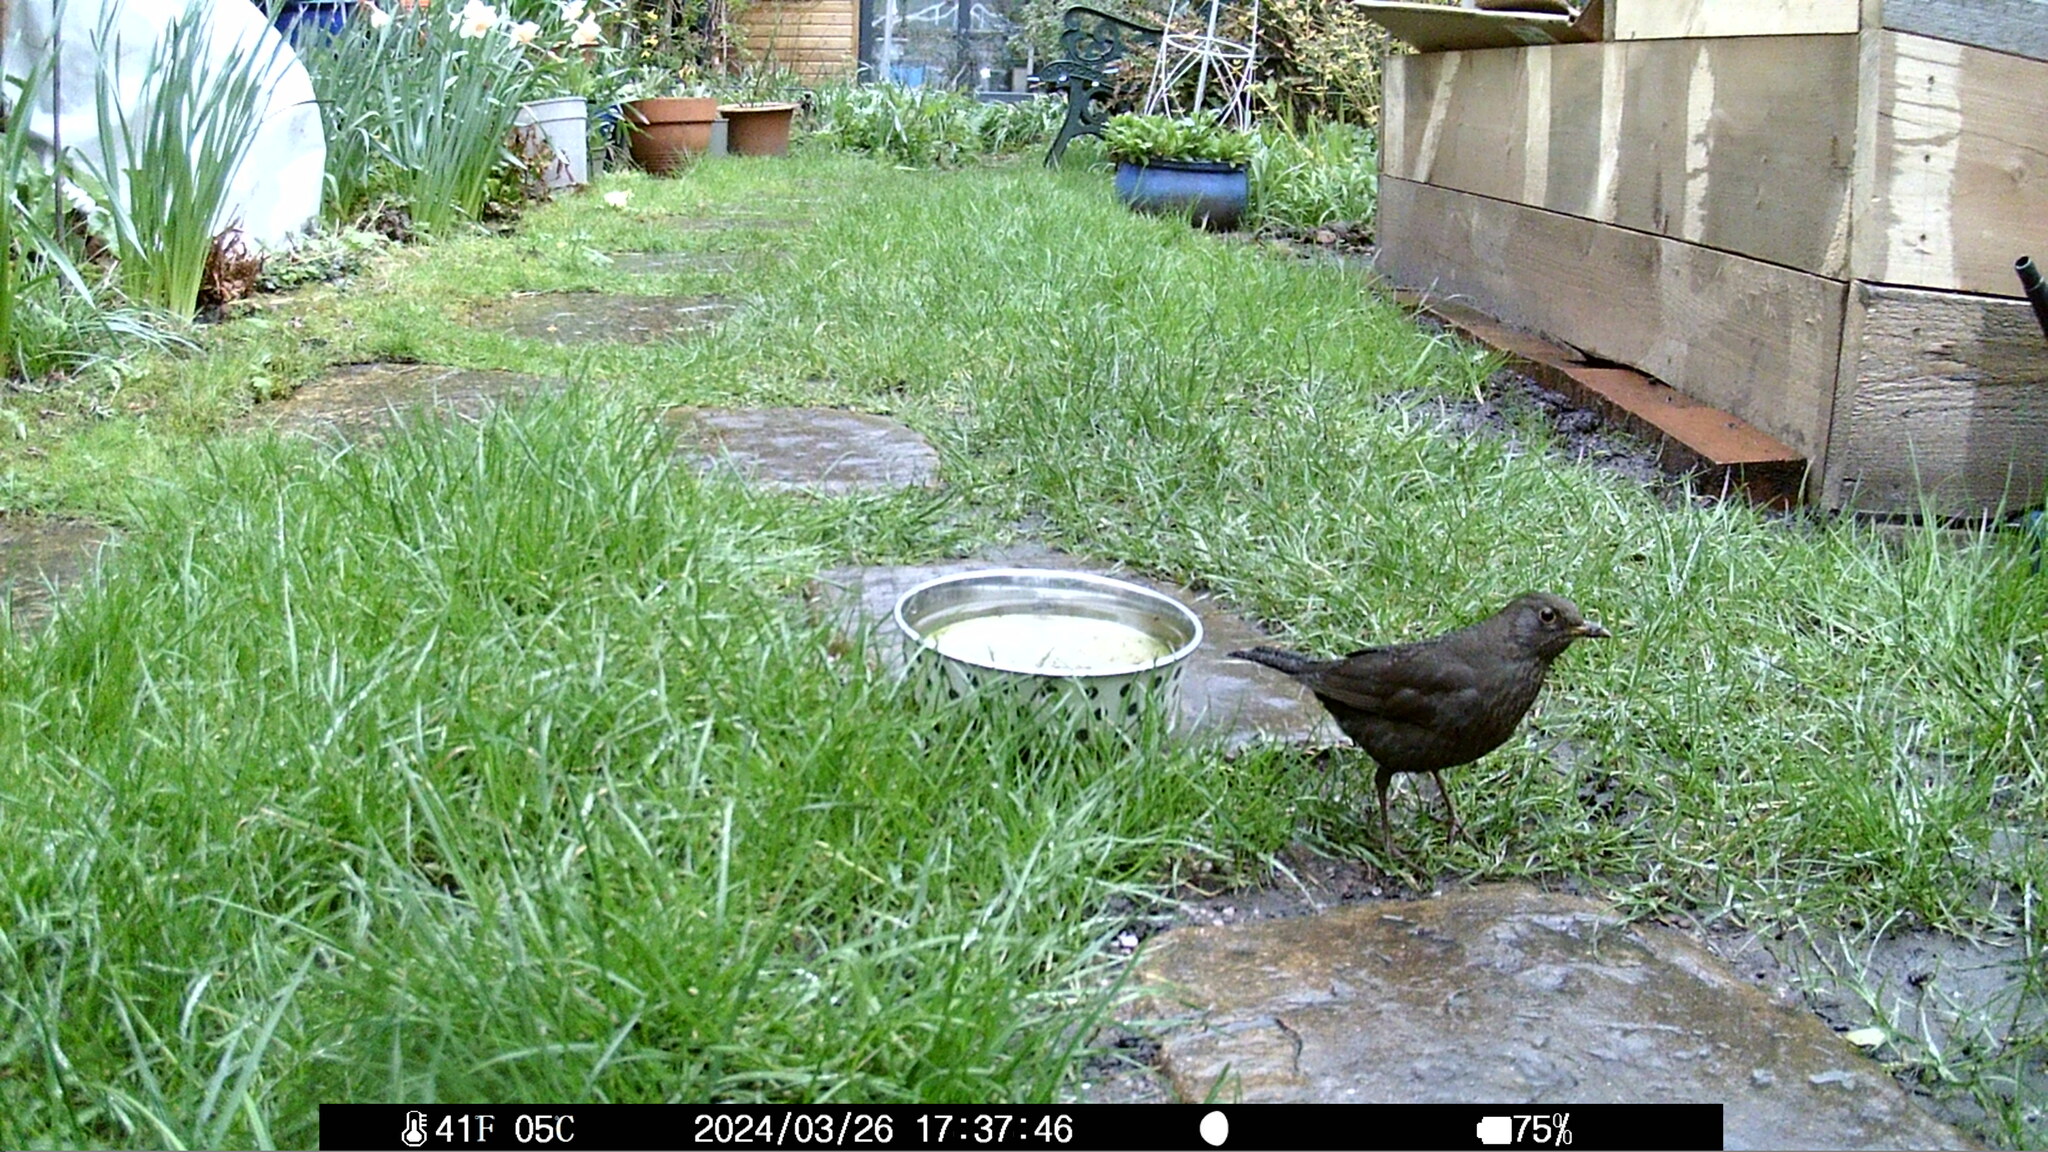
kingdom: Animalia
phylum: Chordata
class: Aves
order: Passeriformes
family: Turdidae
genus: Turdus
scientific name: Turdus merula
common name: Common blackbird
